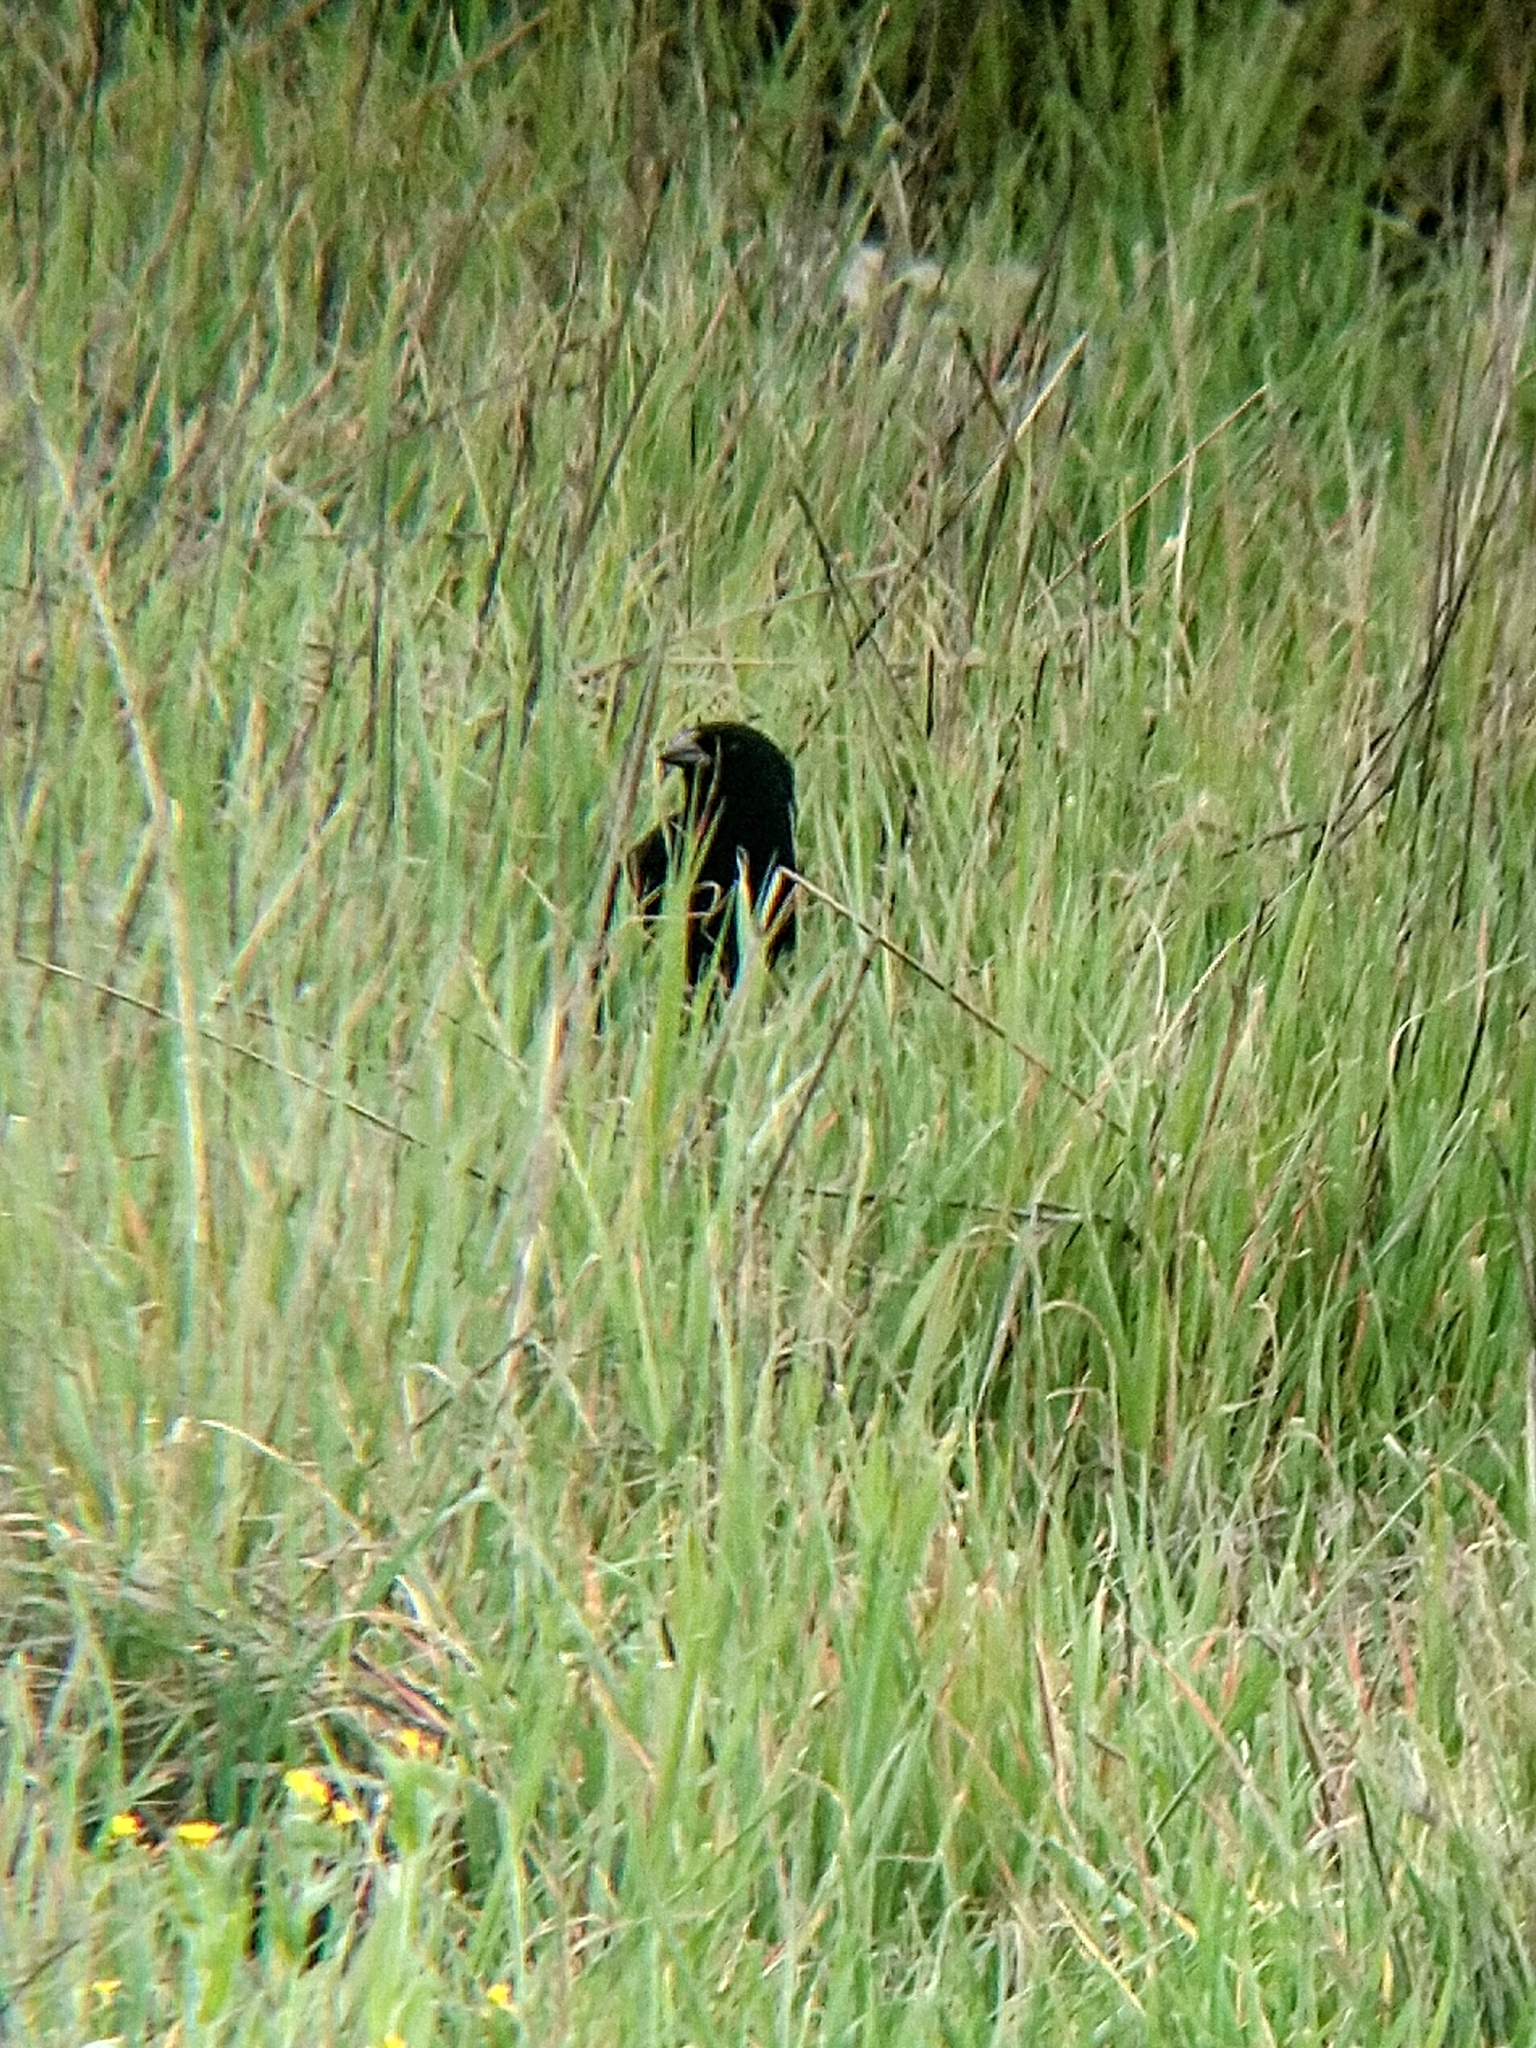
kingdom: Animalia
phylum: Chordata
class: Aves
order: Passeriformes
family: Icteridae
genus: Molothrus
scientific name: Molothrus ater
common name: Brown-headed cowbird
